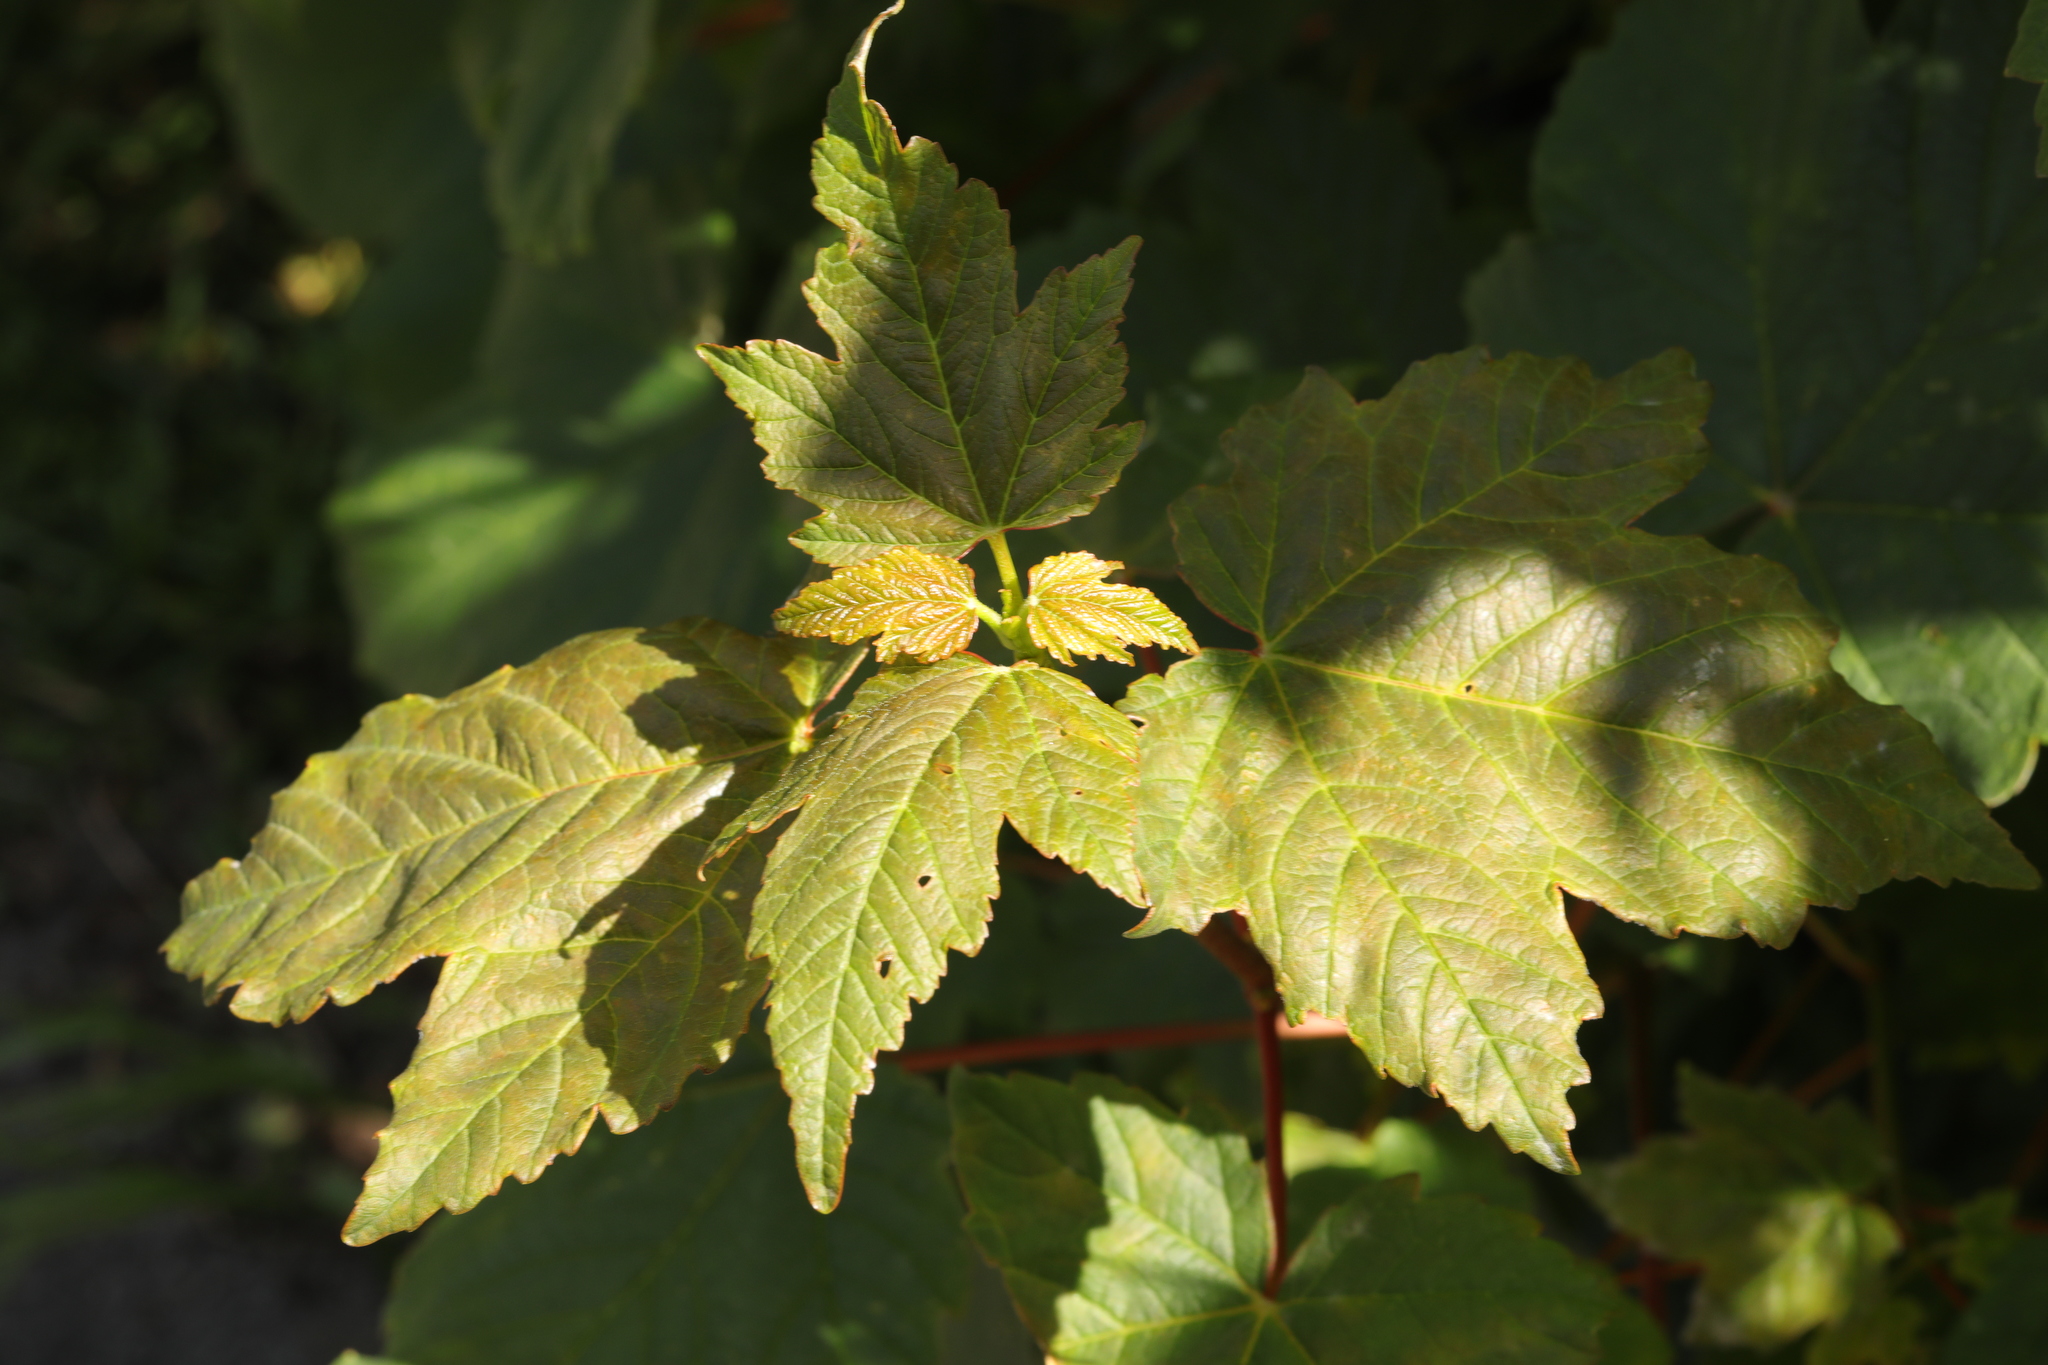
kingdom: Plantae
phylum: Tracheophyta
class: Magnoliopsida
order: Sapindales
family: Sapindaceae
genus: Acer
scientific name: Acer pseudoplatanus
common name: Sycamore
